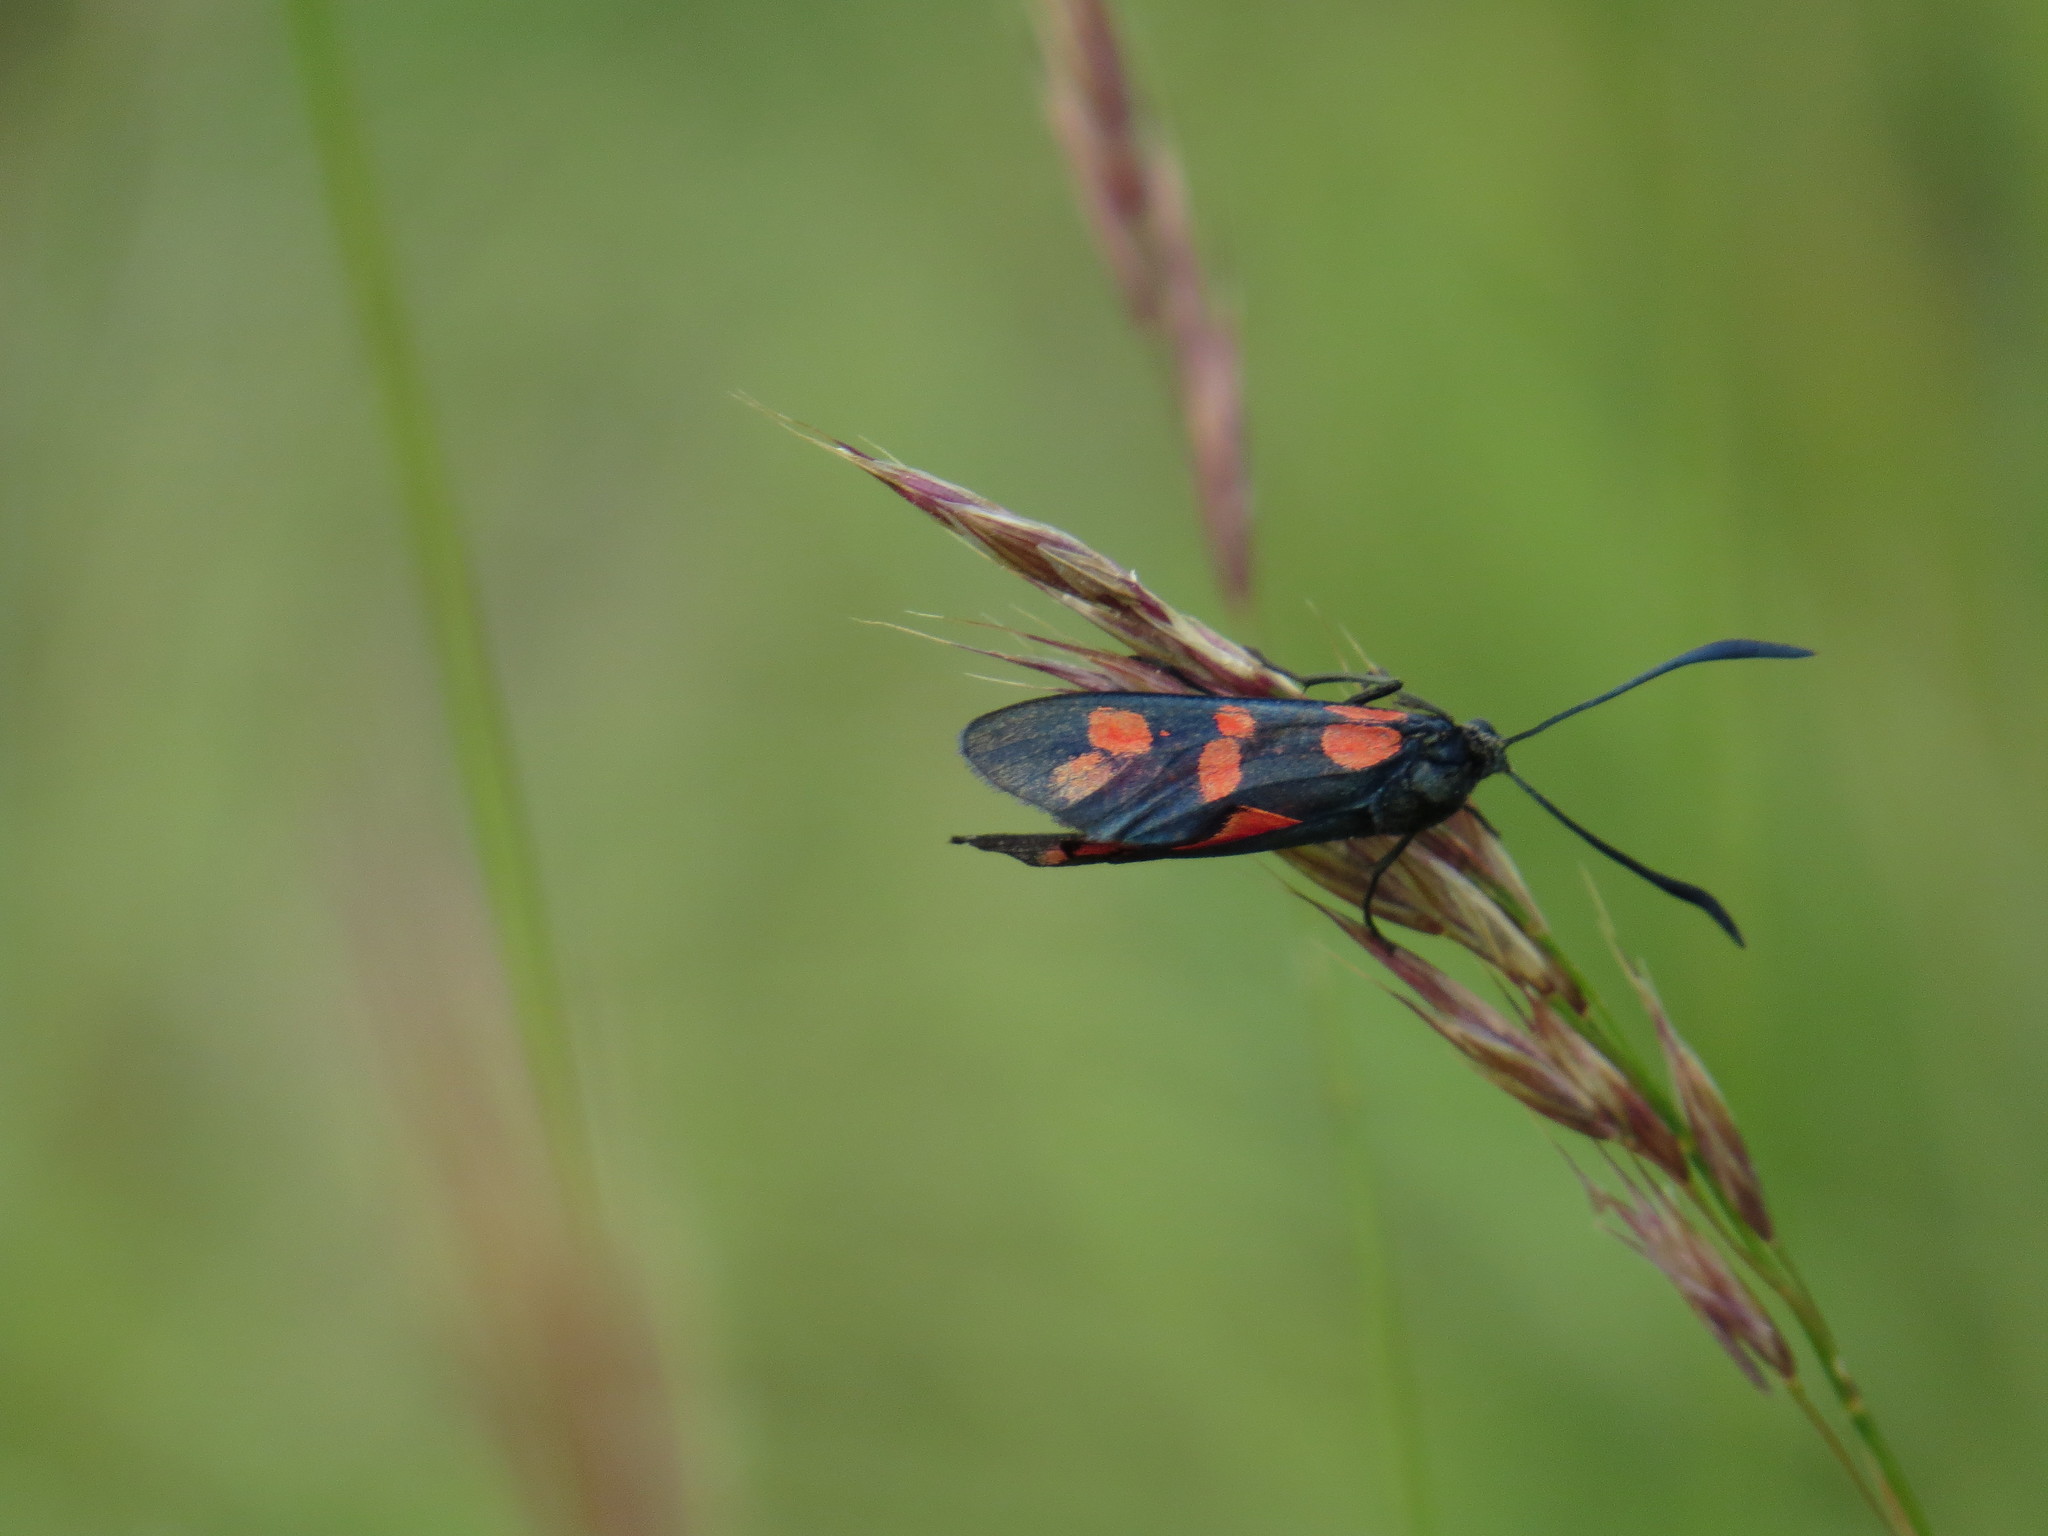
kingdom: Animalia
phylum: Arthropoda
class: Insecta
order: Lepidoptera
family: Zygaenidae
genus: Zygaena
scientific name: Zygaena filipendulae
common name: Six-spot burnet
